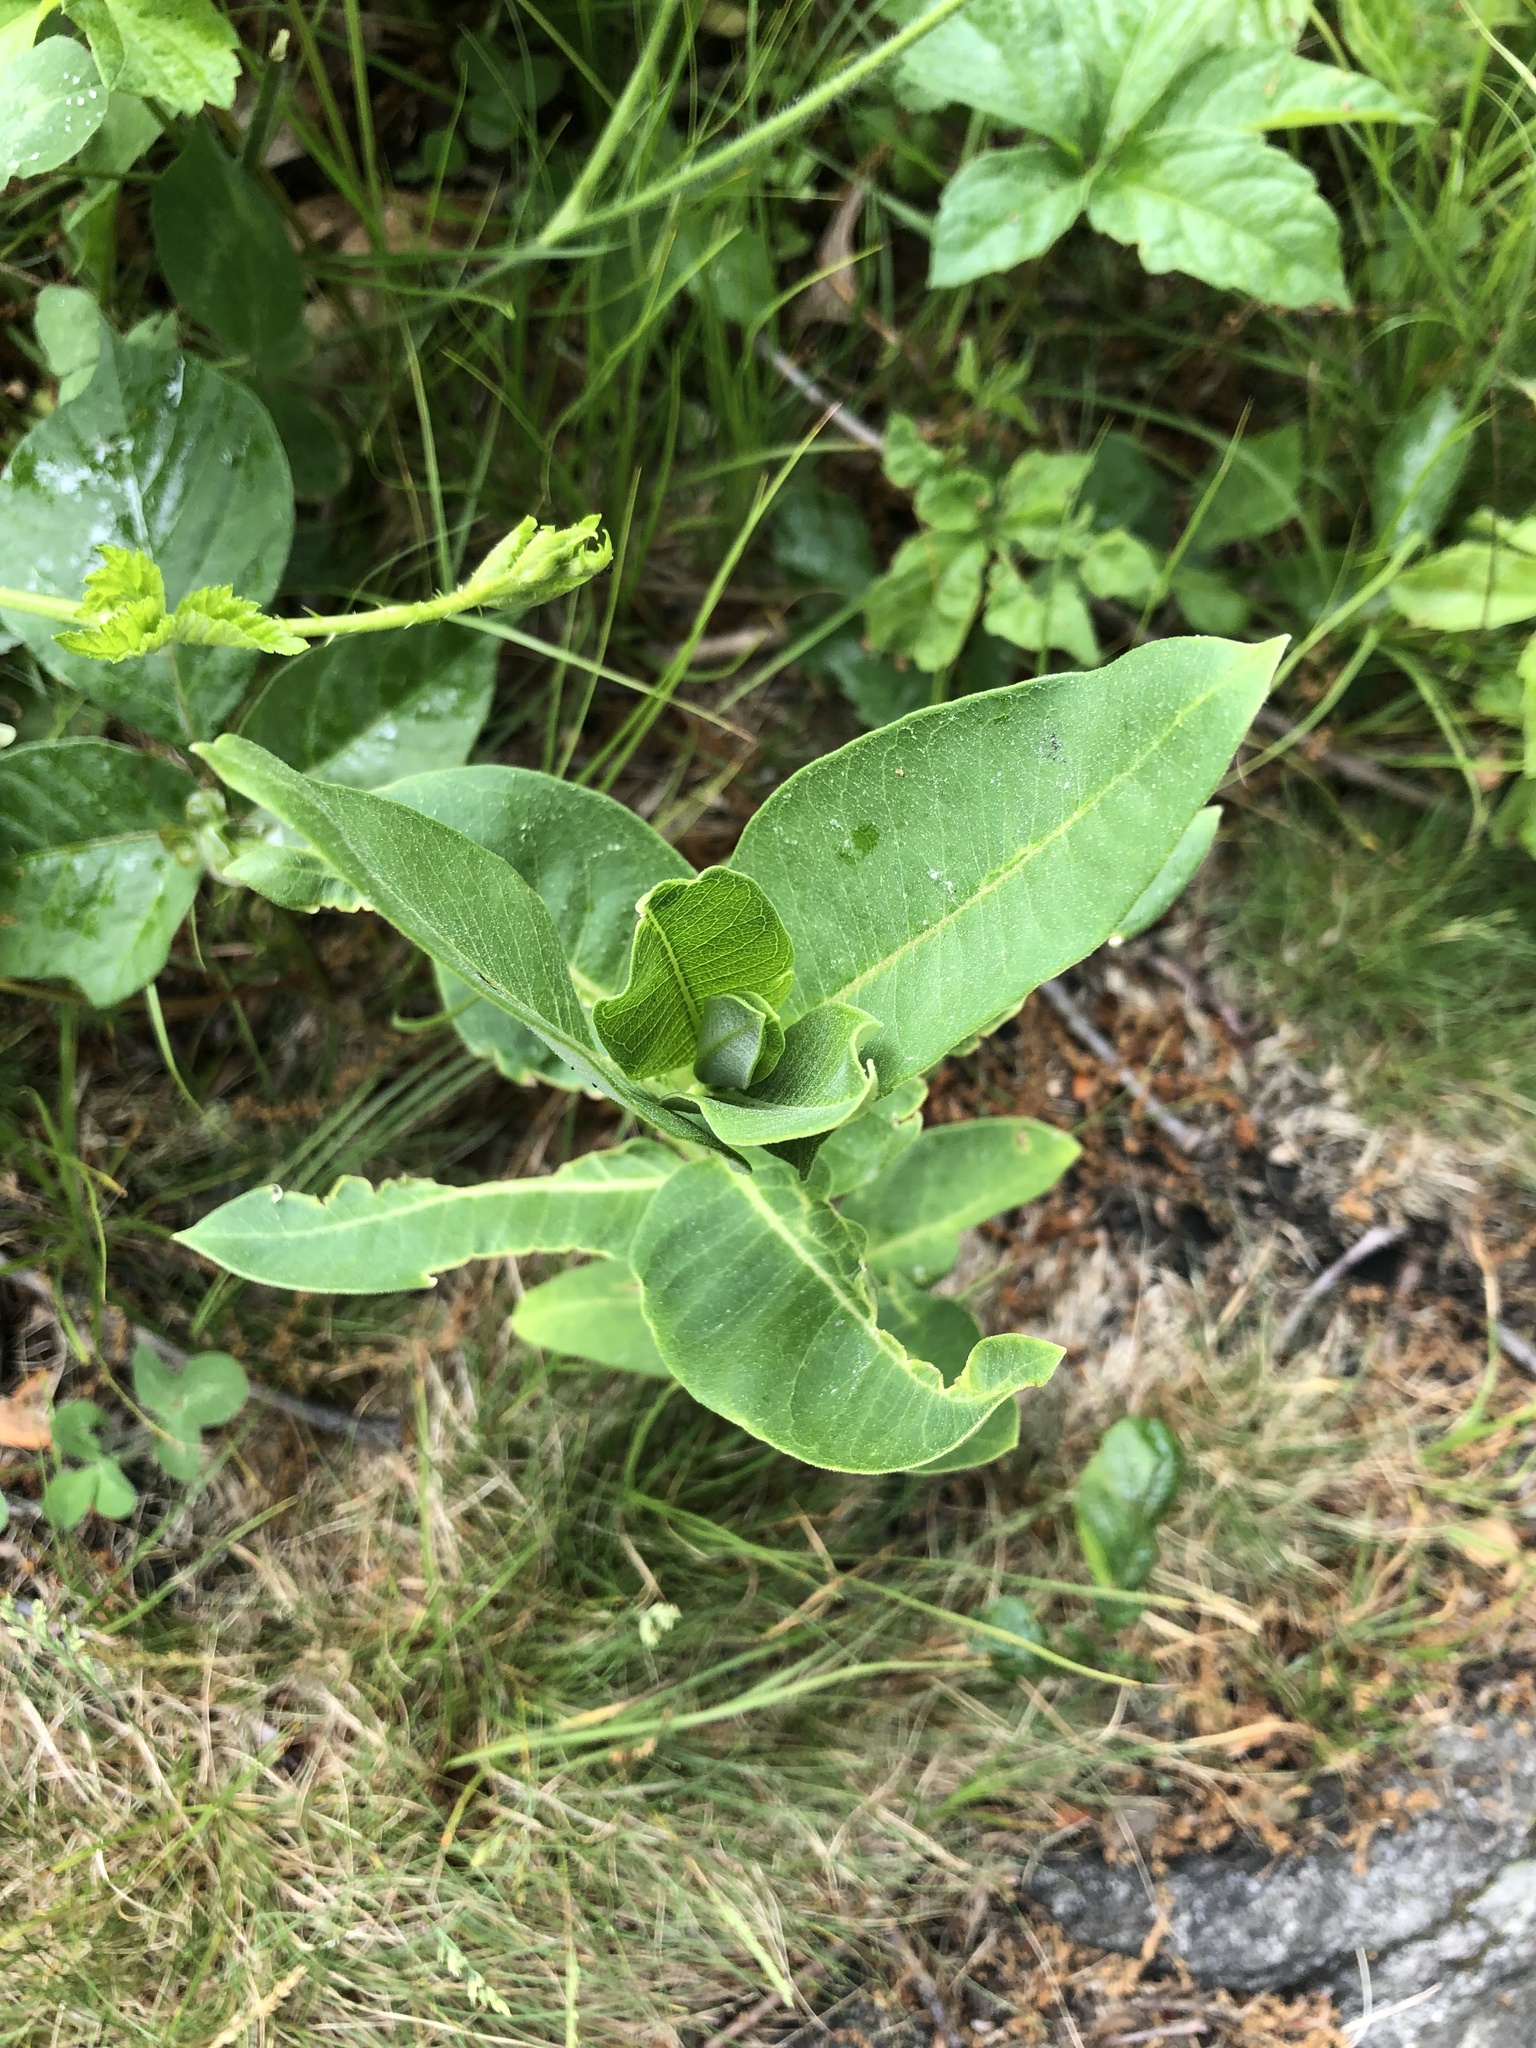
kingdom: Plantae
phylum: Tracheophyta
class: Magnoliopsida
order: Gentianales
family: Apocynaceae
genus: Asclepias
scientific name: Asclepias syriaca
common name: Common milkweed
